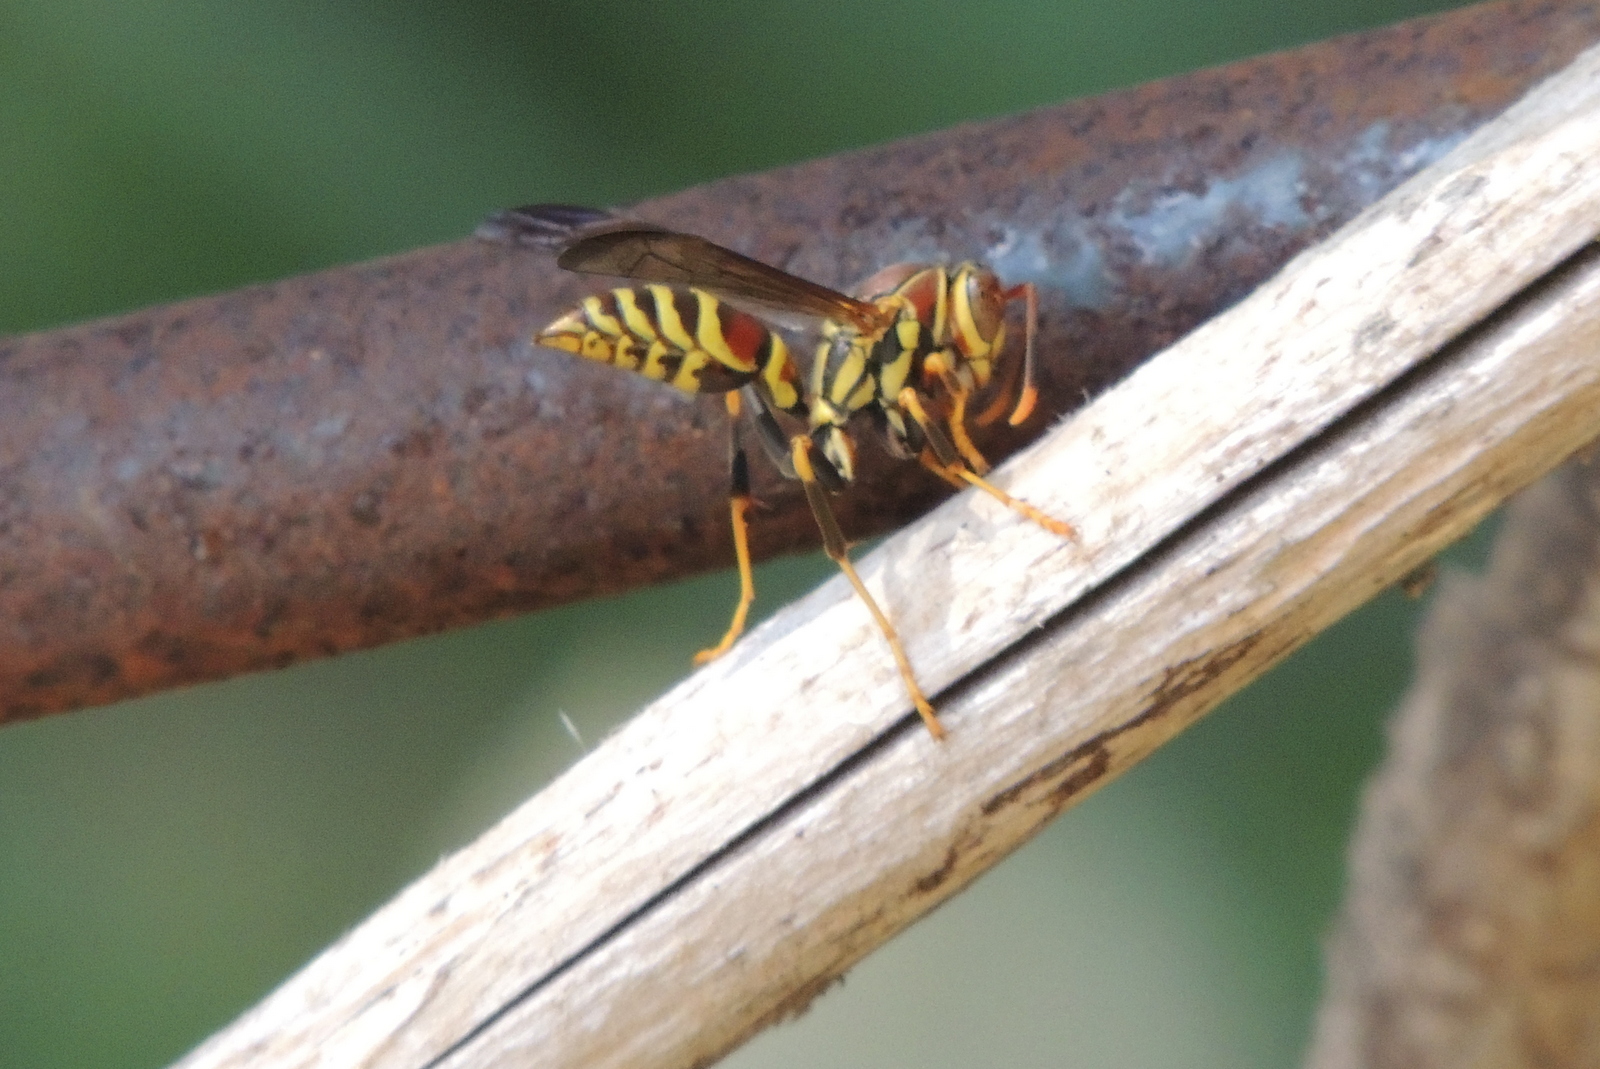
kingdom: Animalia
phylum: Arthropoda
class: Insecta
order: Hymenoptera
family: Eumenidae
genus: Polistes
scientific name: Polistes exclamans
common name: Paper wasp
